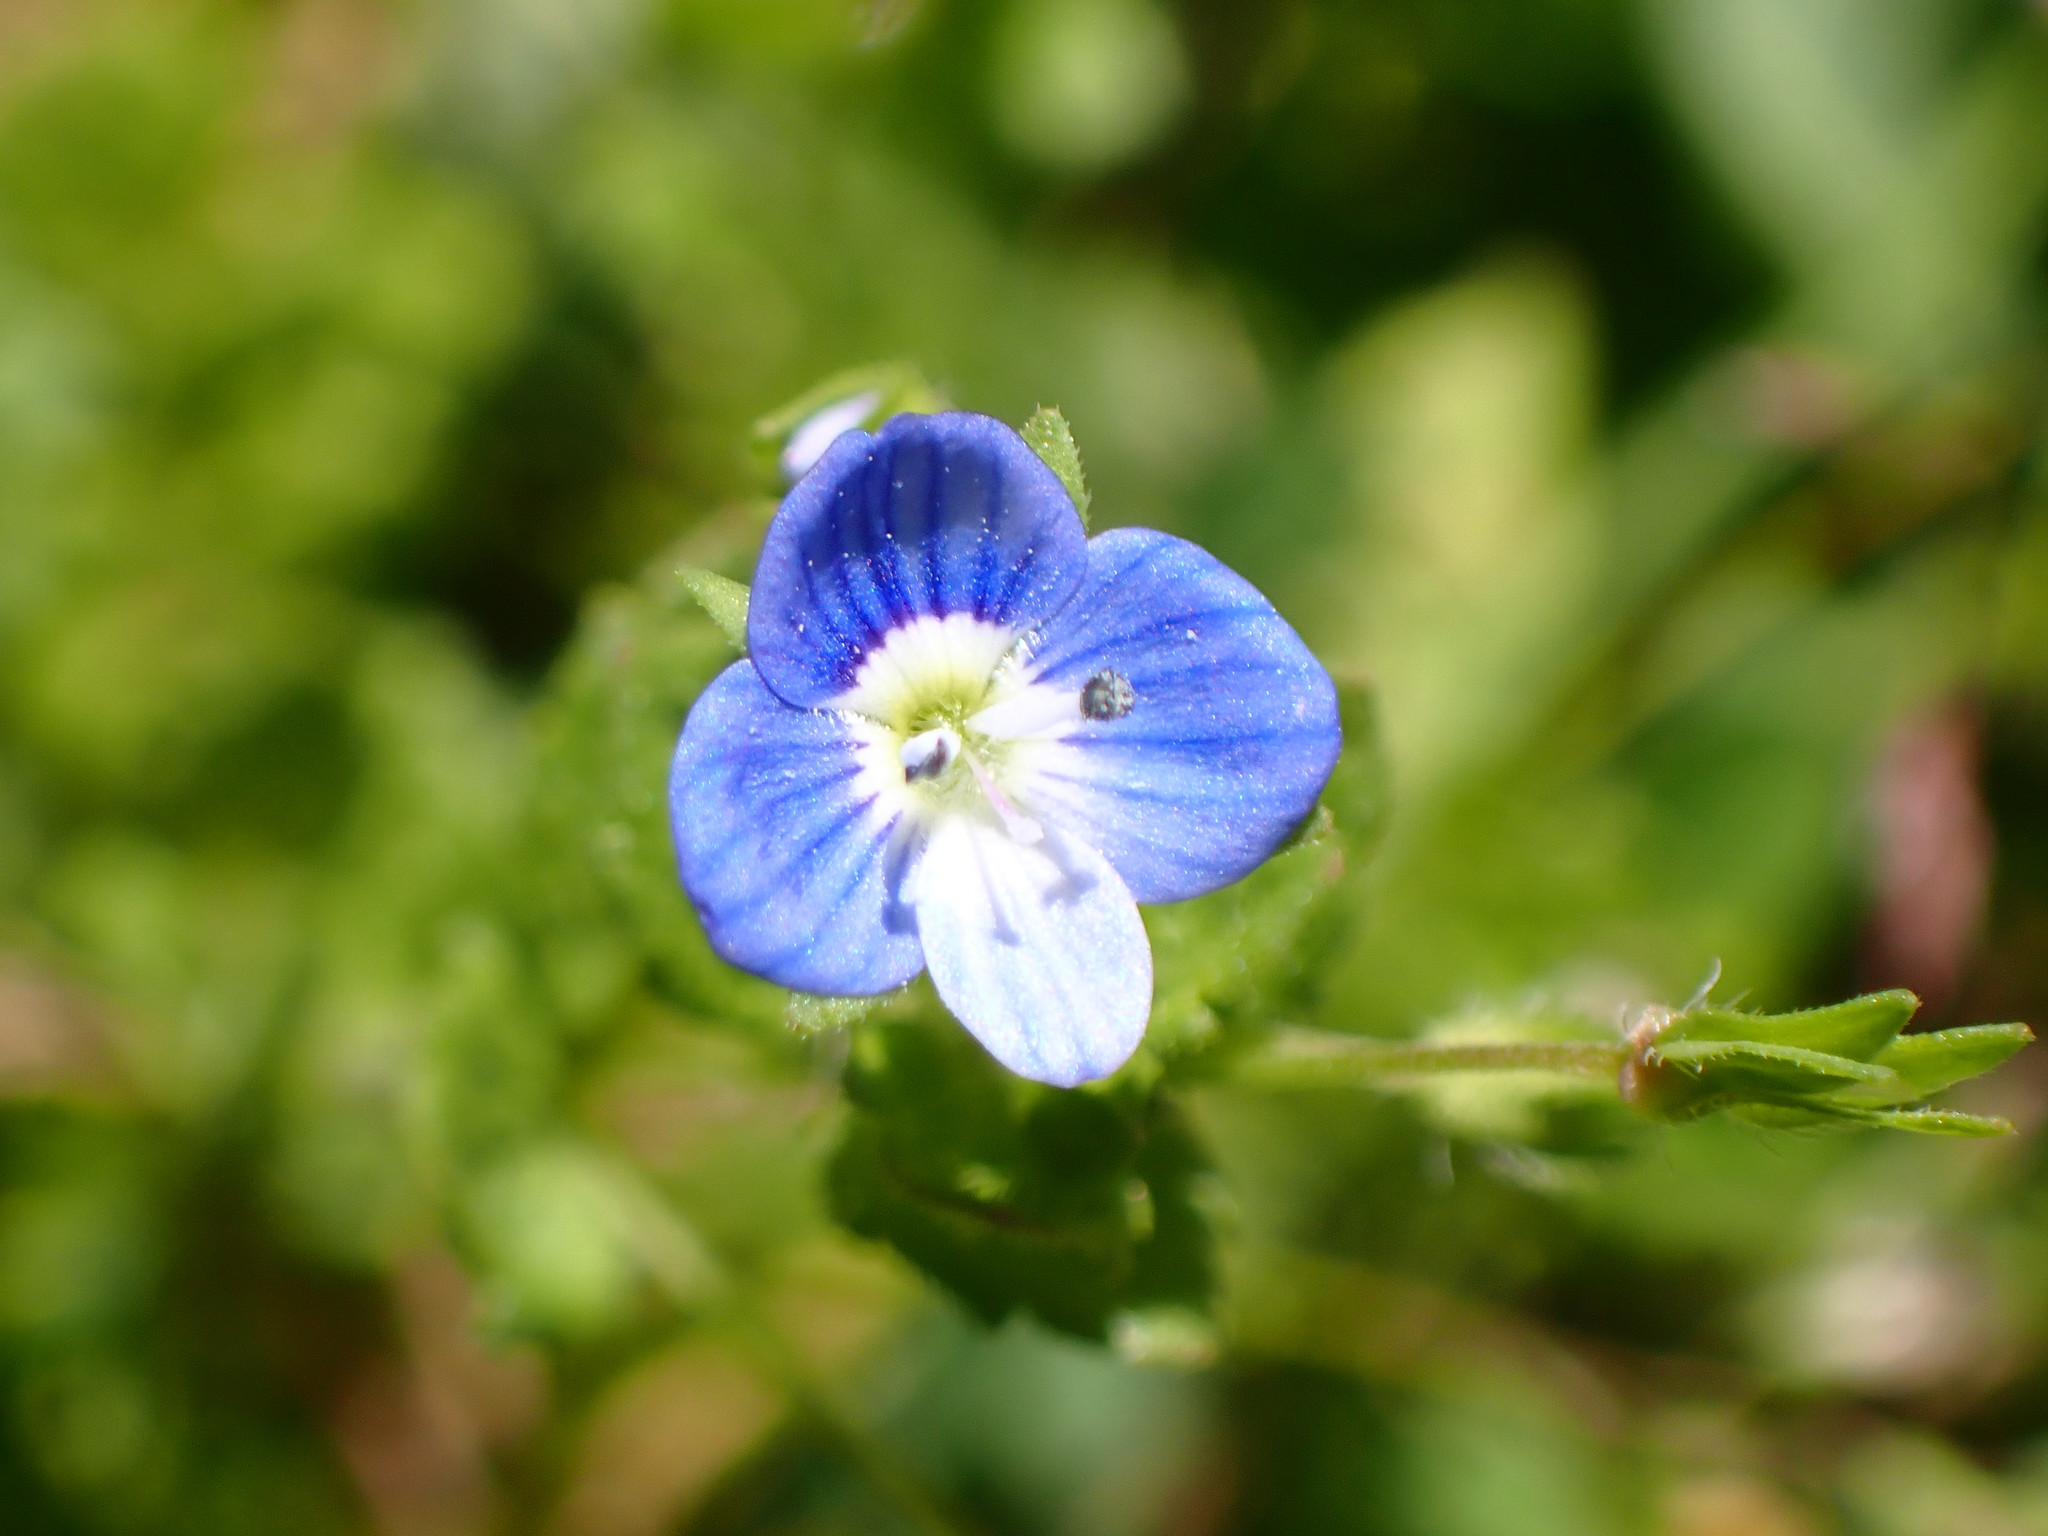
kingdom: Plantae
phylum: Tracheophyta
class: Magnoliopsida
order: Lamiales
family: Plantaginaceae
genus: Veronica
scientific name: Veronica persica
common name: Common field-speedwell
